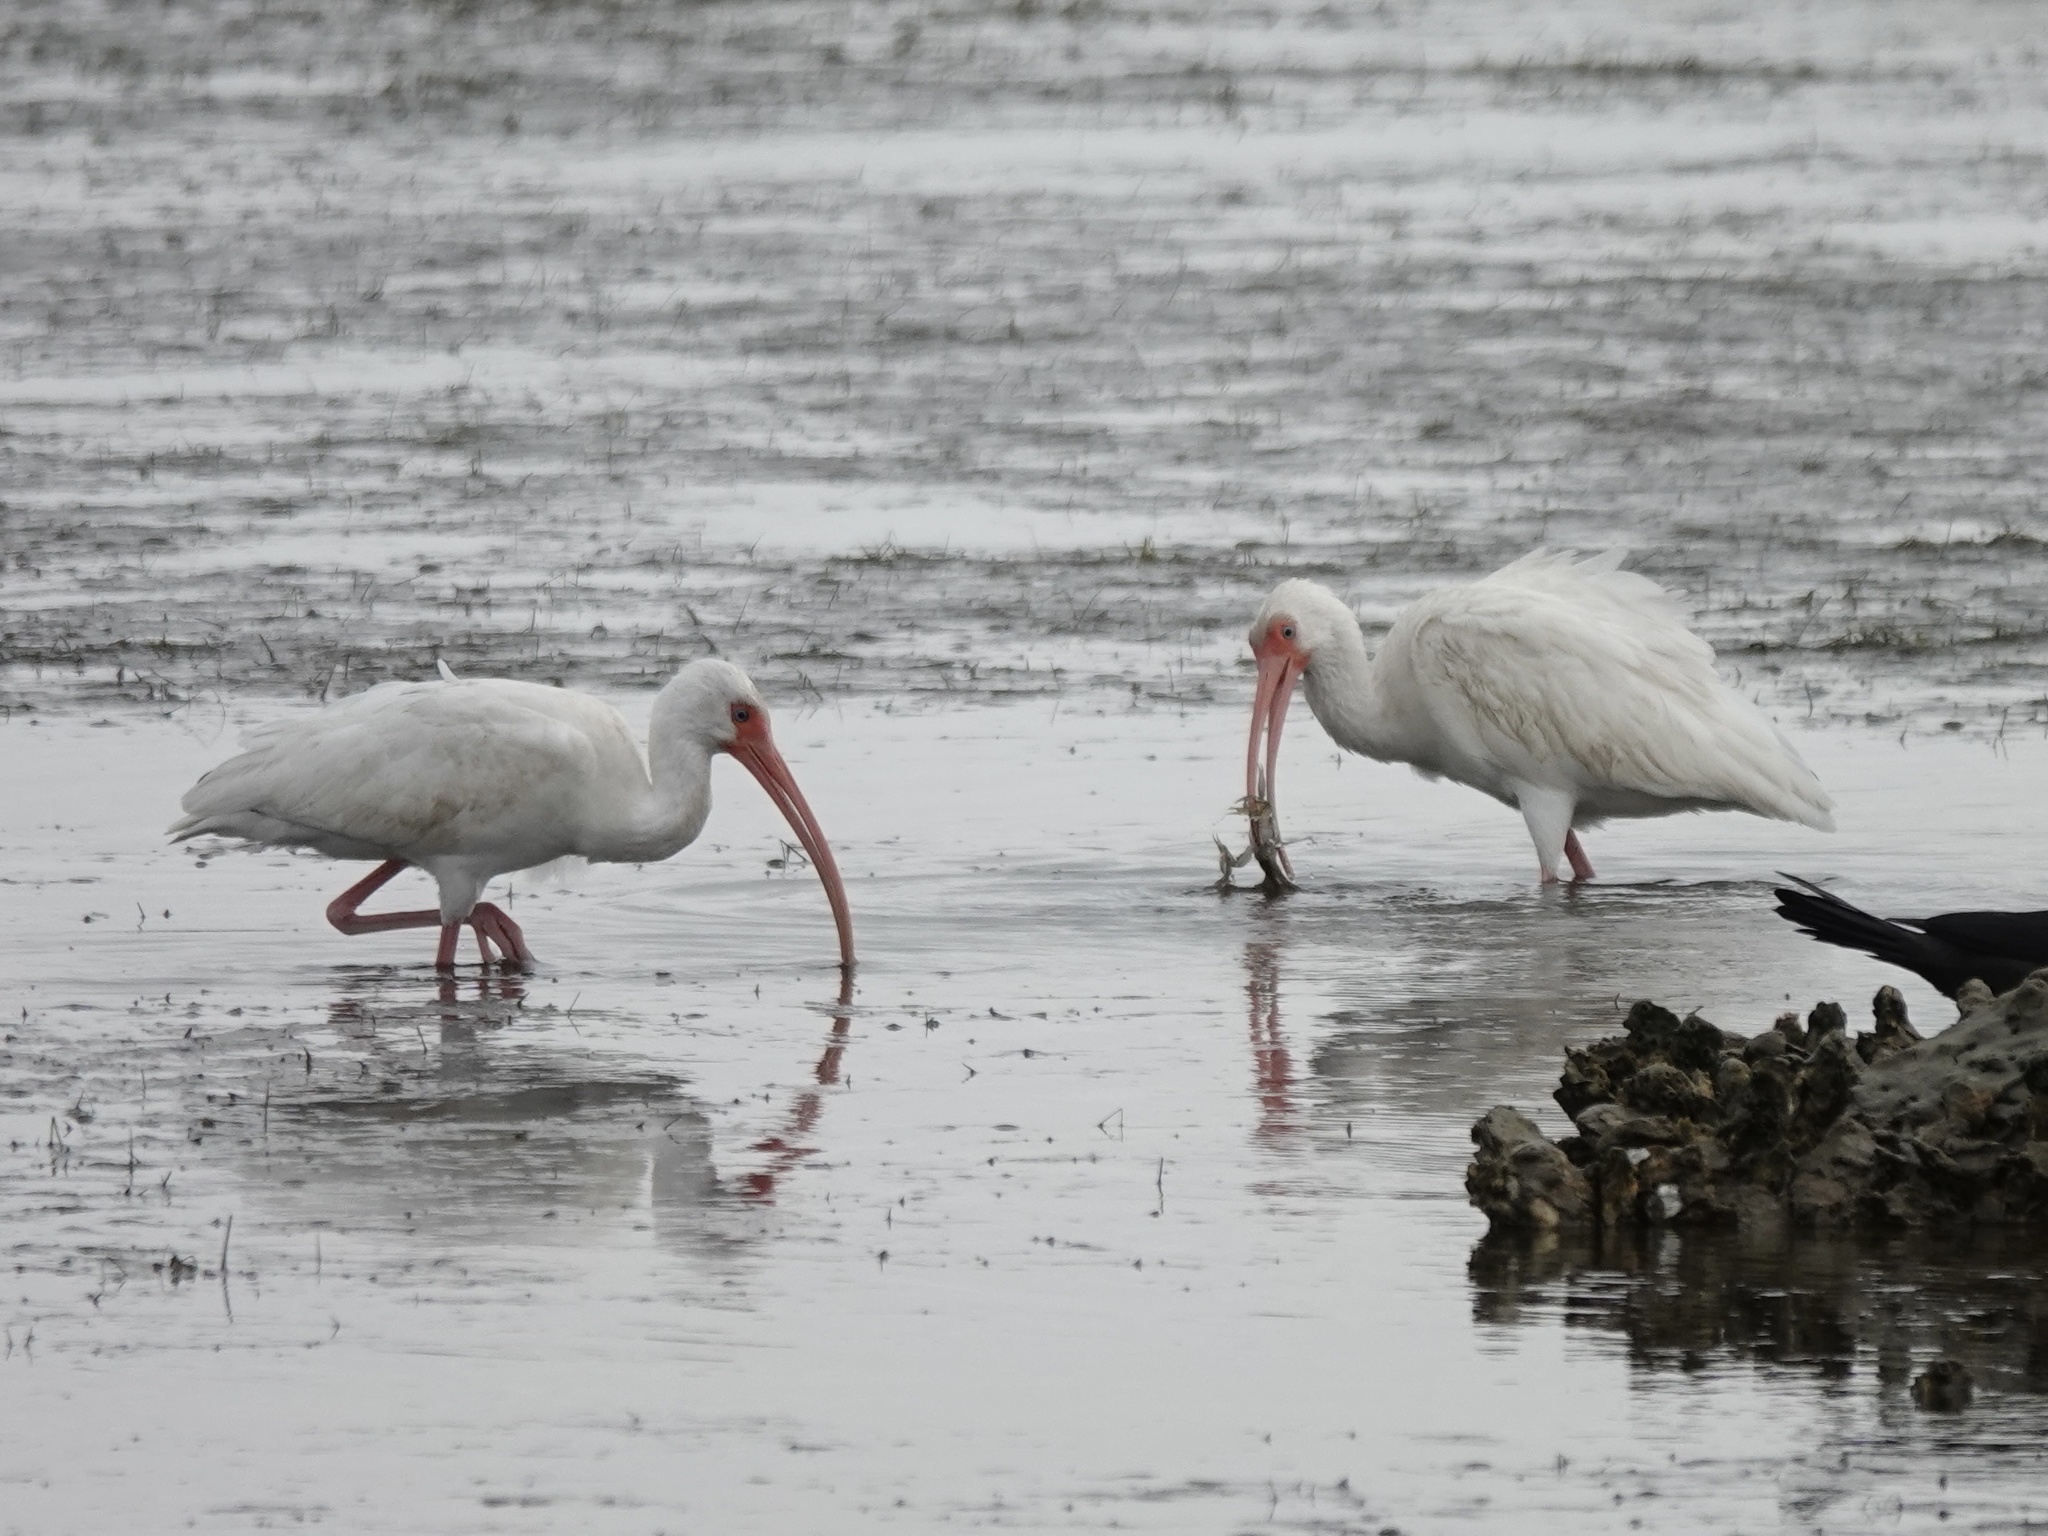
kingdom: Animalia
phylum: Chordata
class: Aves
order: Pelecaniformes
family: Threskiornithidae
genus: Eudocimus
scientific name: Eudocimus albus
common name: White ibis
